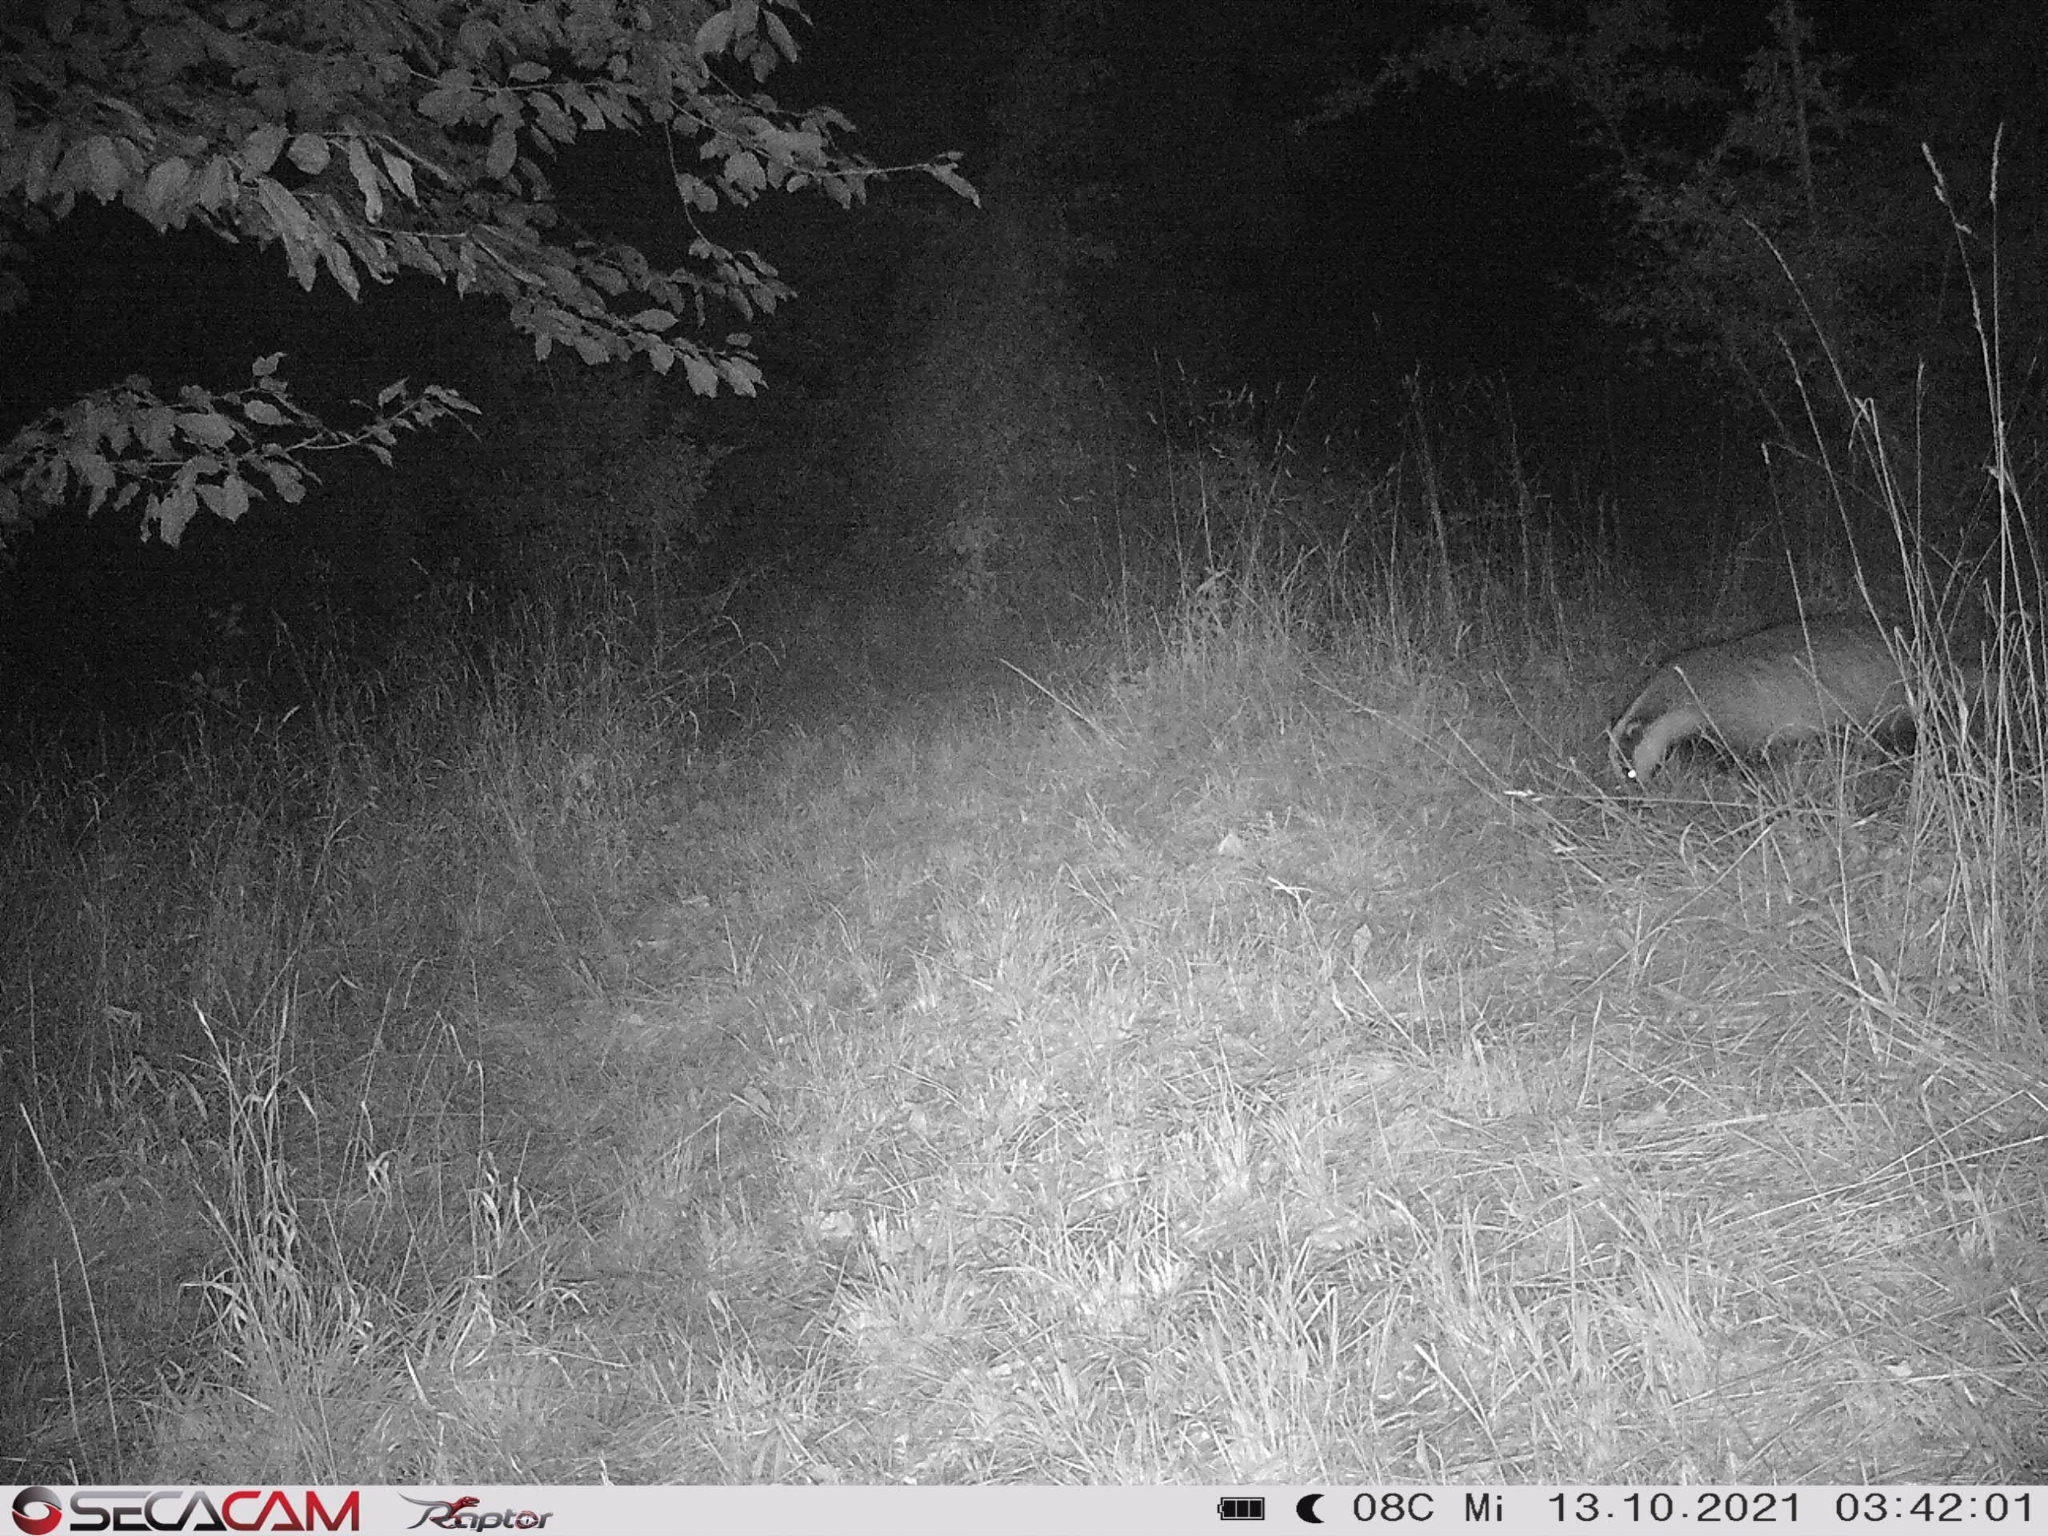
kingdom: Animalia
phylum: Chordata
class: Mammalia
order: Carnivora
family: Mustelidae
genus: Meles
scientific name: Meles meles
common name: Eurasian badger
